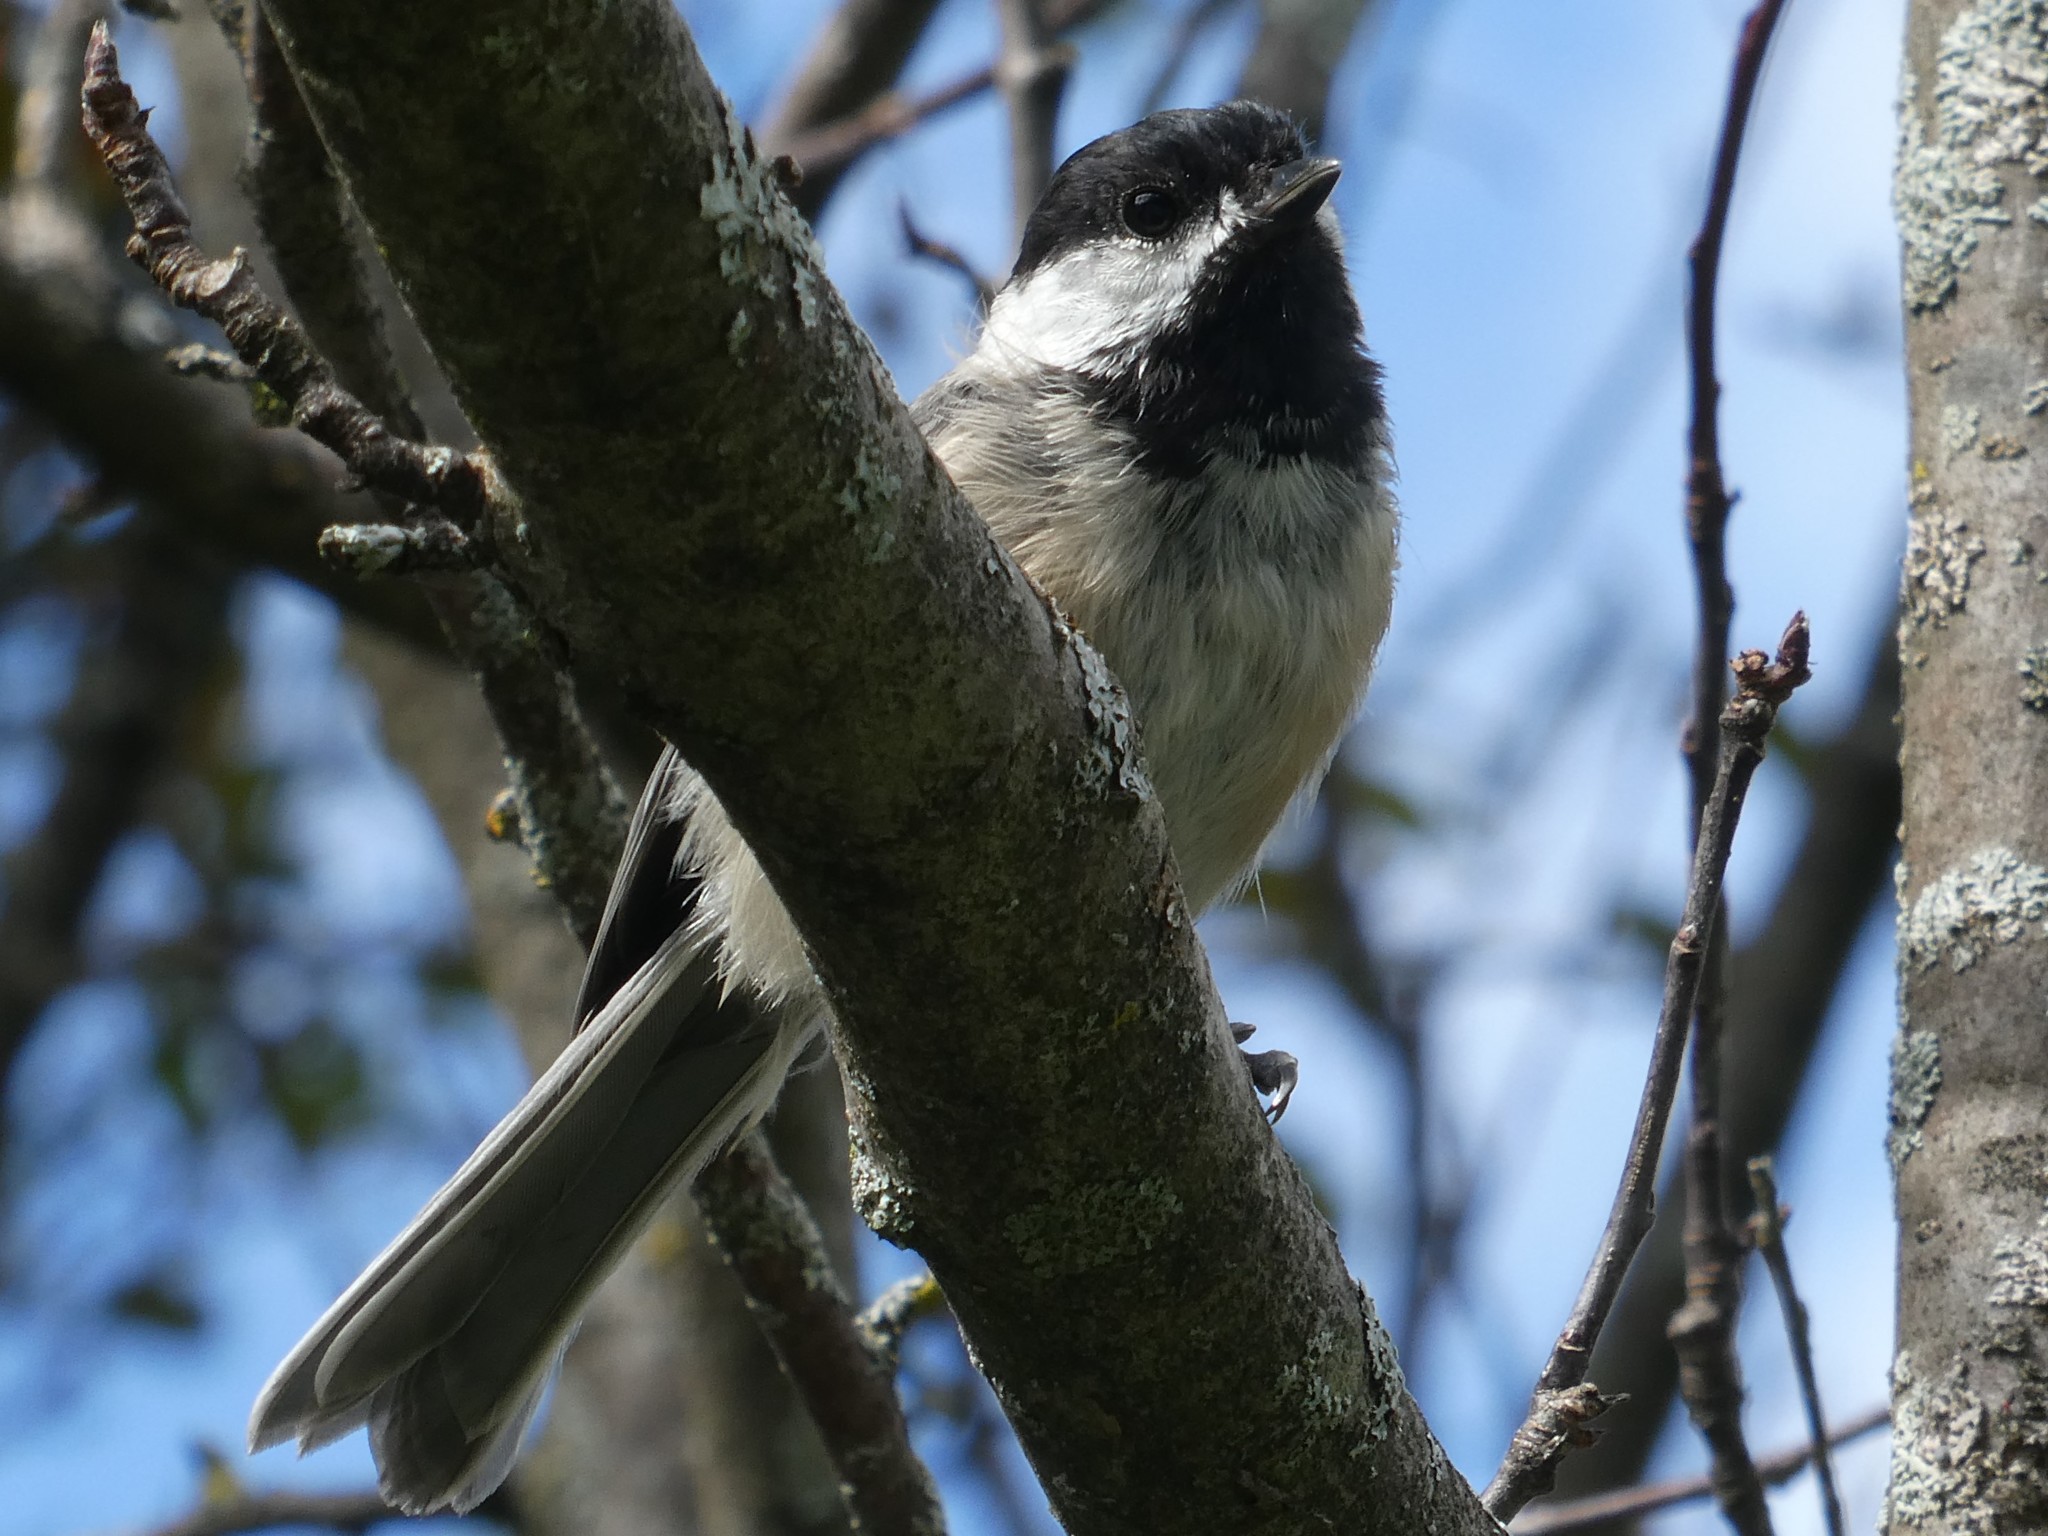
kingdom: Animalia
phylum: Chordata
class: Aves
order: Passeriformes
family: Paridae
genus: Poecile
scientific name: Poecile atricapillus
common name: Black-capped chickadee
